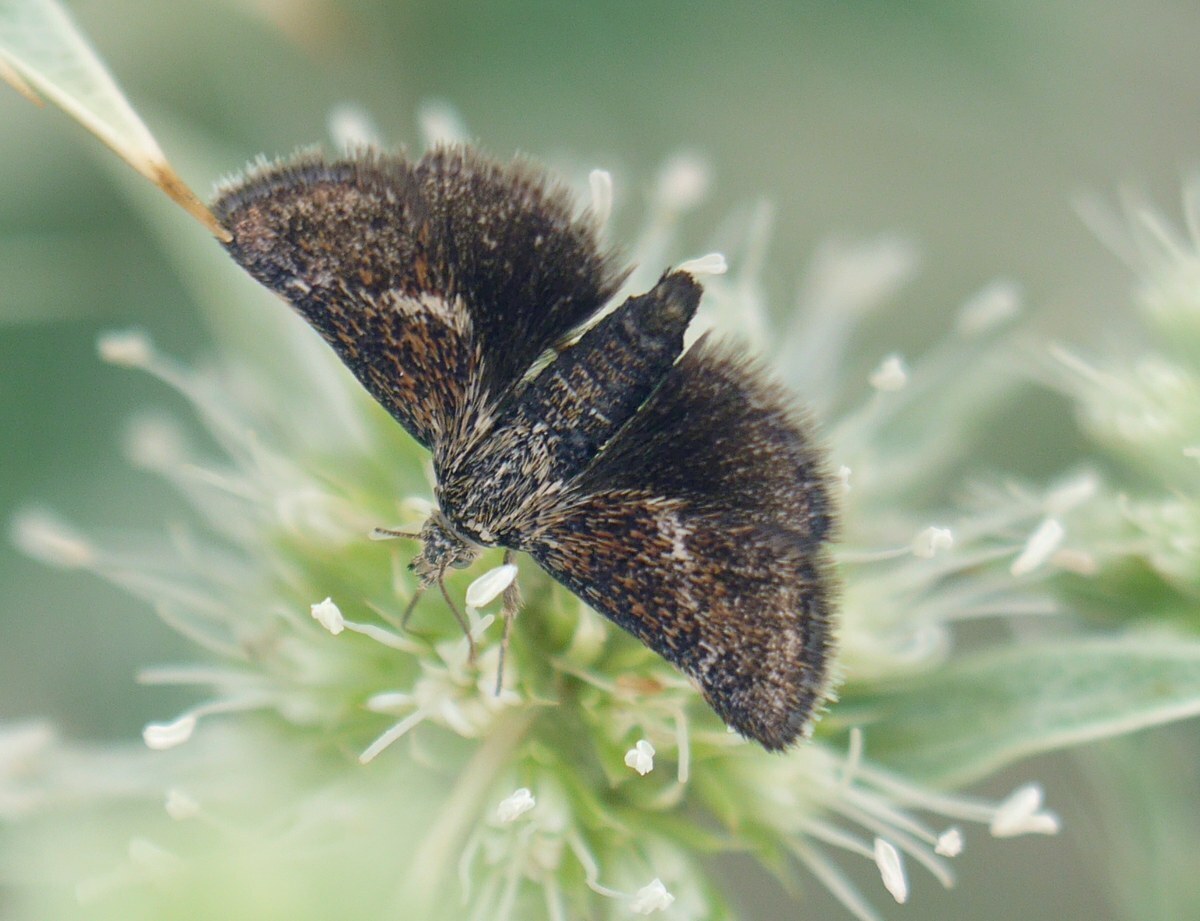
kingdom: Animalia
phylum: Arthropoda
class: Insecta
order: Lepidoptera
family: Crambidae
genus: Titanio
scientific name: Titanio ledereri
